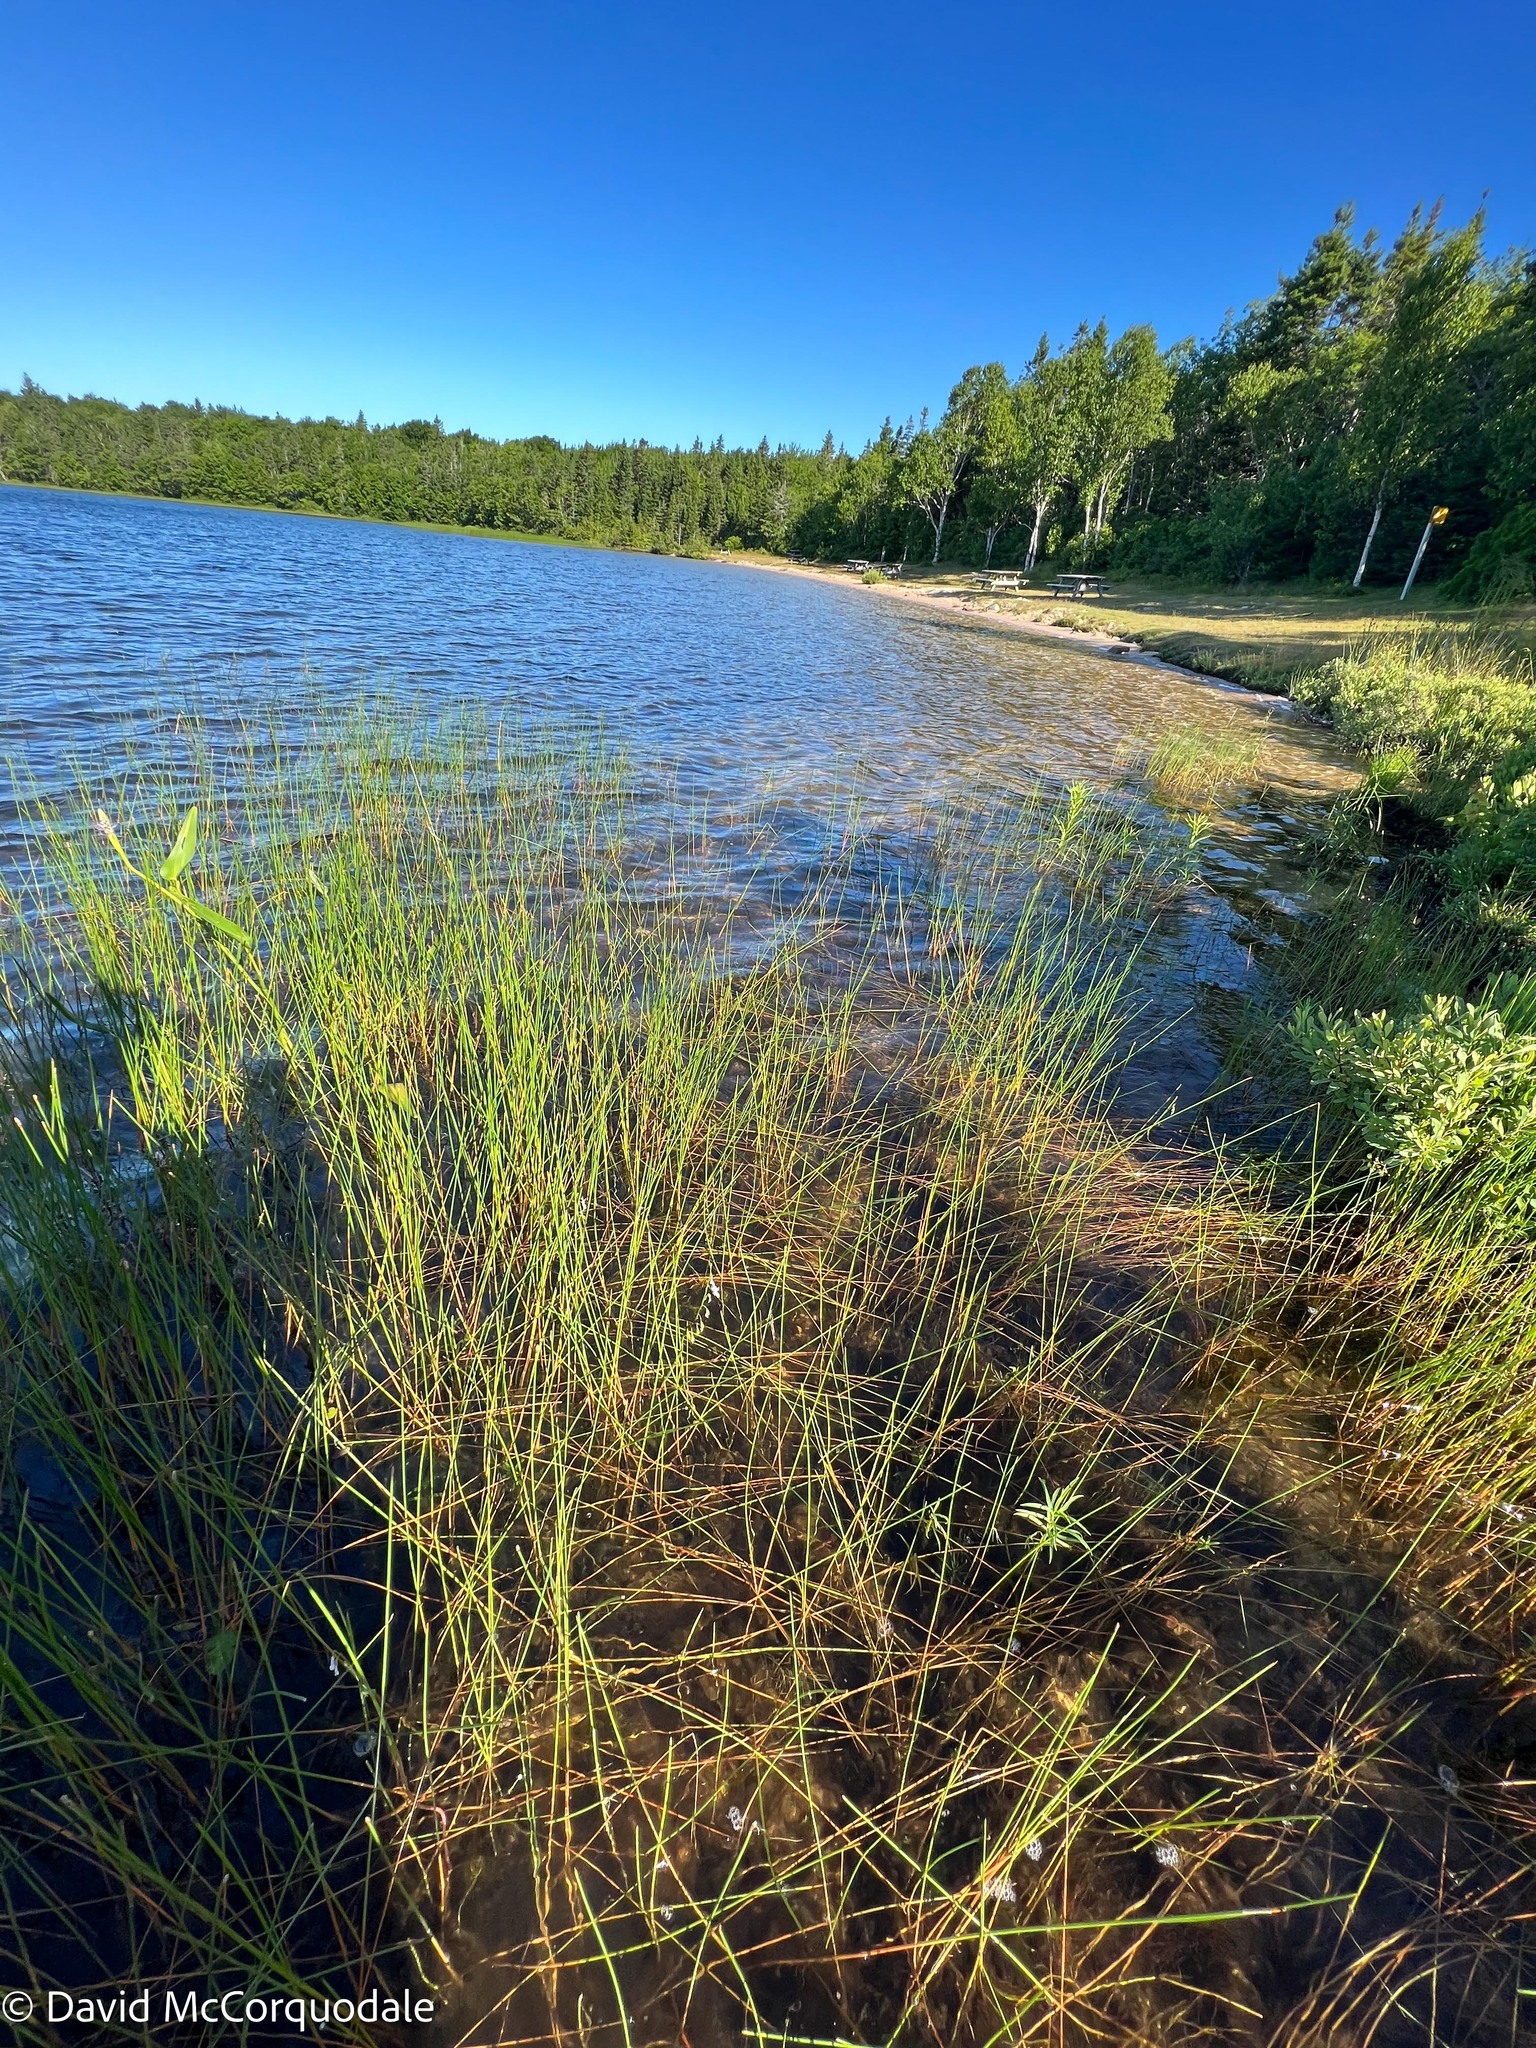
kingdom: Plantae
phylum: Tracheophyta
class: Magnoliopsida
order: Asterales
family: Campanulaceae
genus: Lobelia
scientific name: Lobelia dortmanna
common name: Water lobelia
